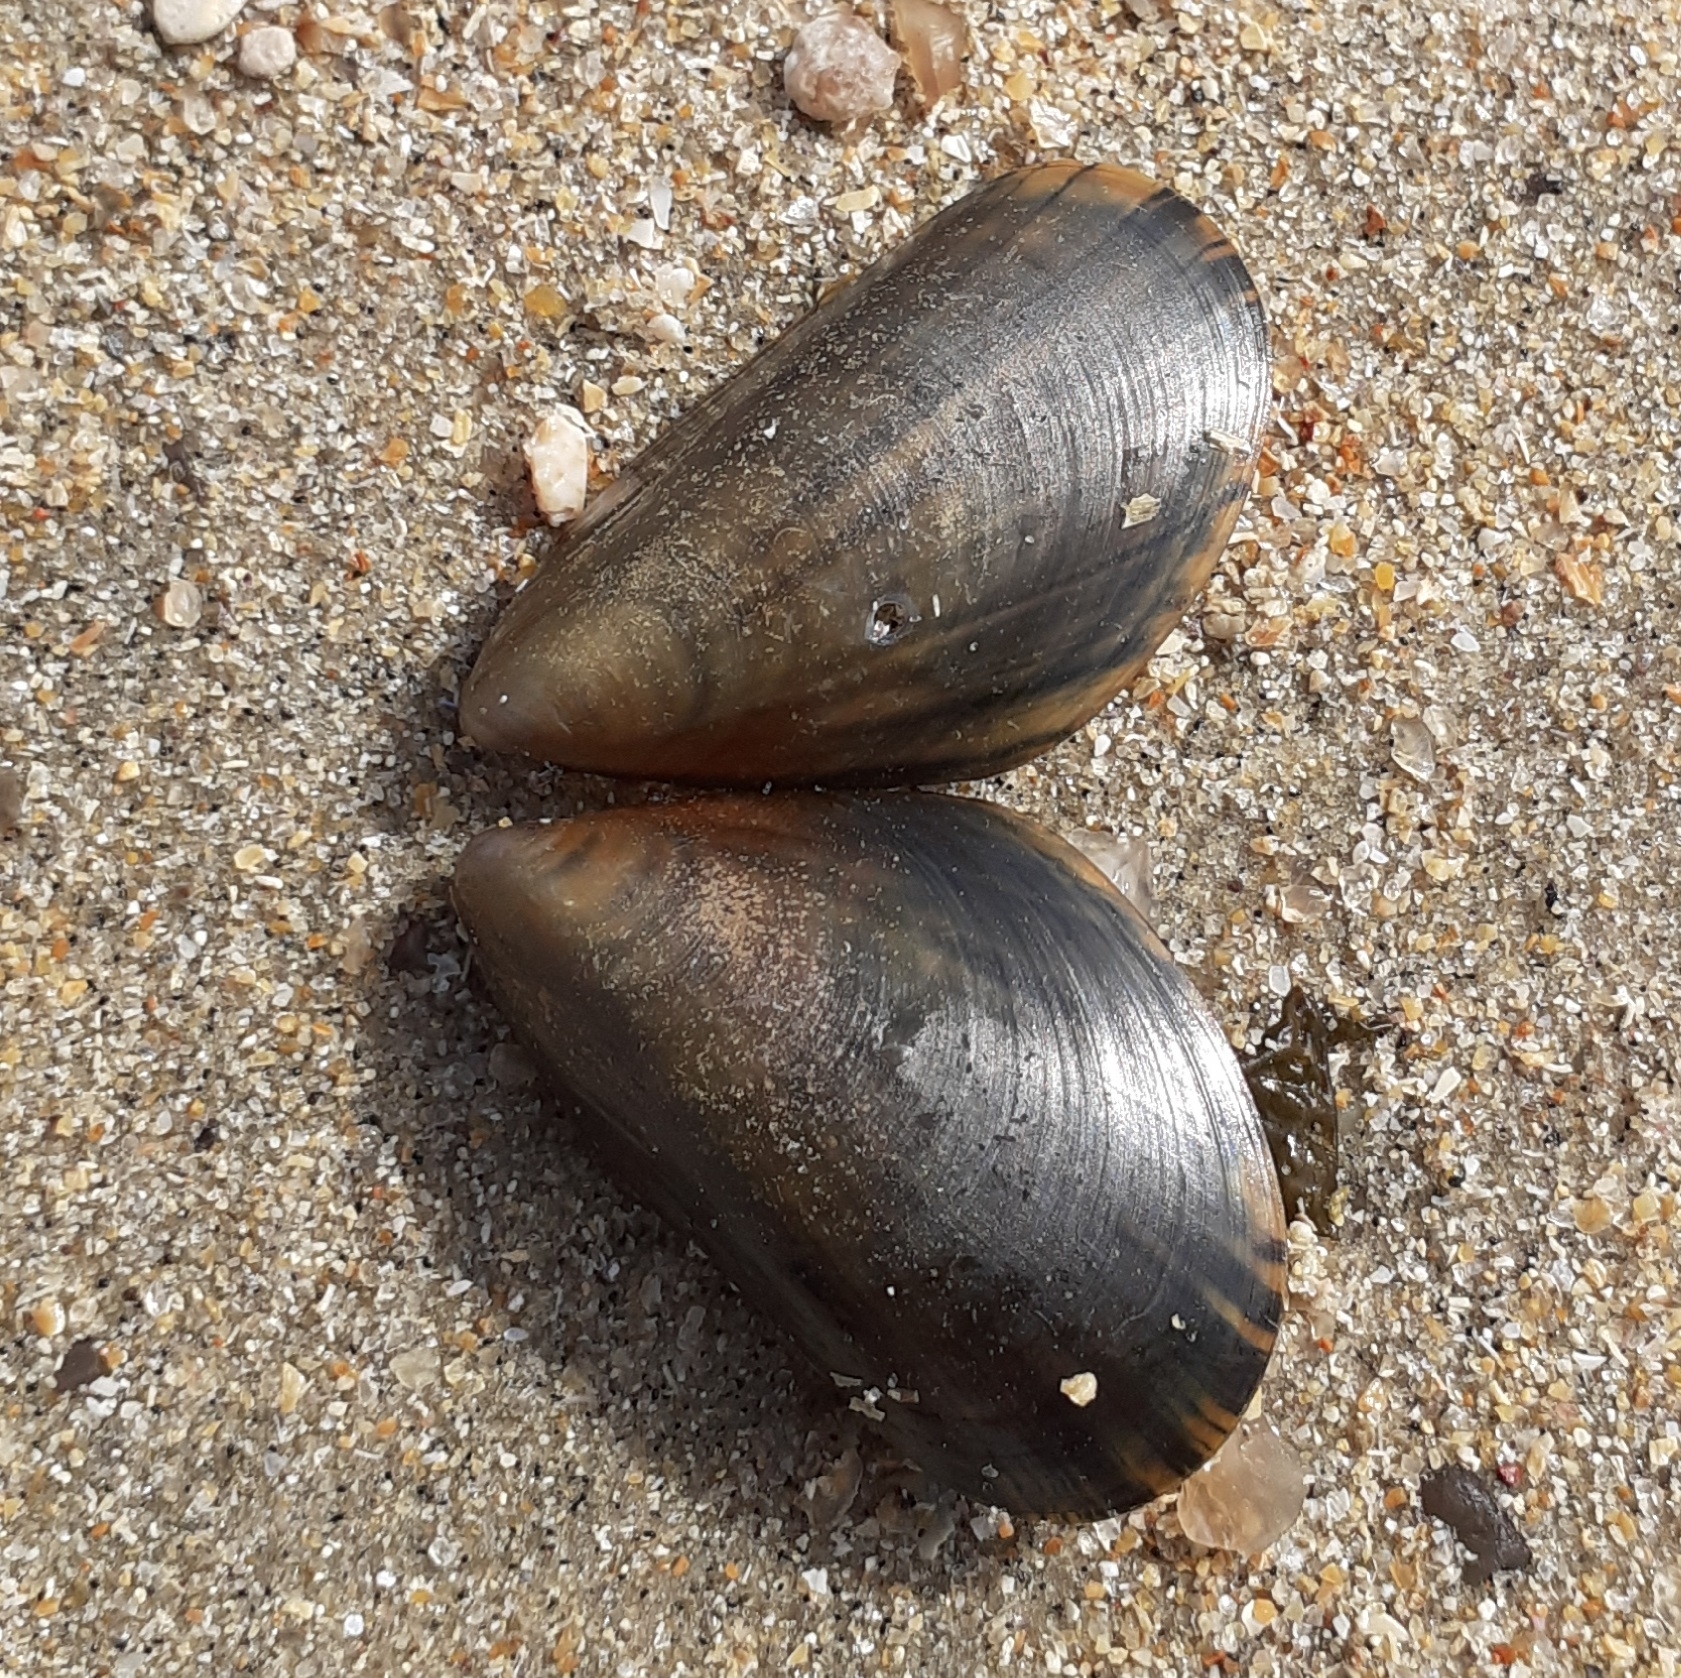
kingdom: Animalia
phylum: Mollusca
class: Bivalvia
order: Mytilida
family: Mytilidae
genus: Mytilus
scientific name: Mytilus edulis
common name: Blue mussel
